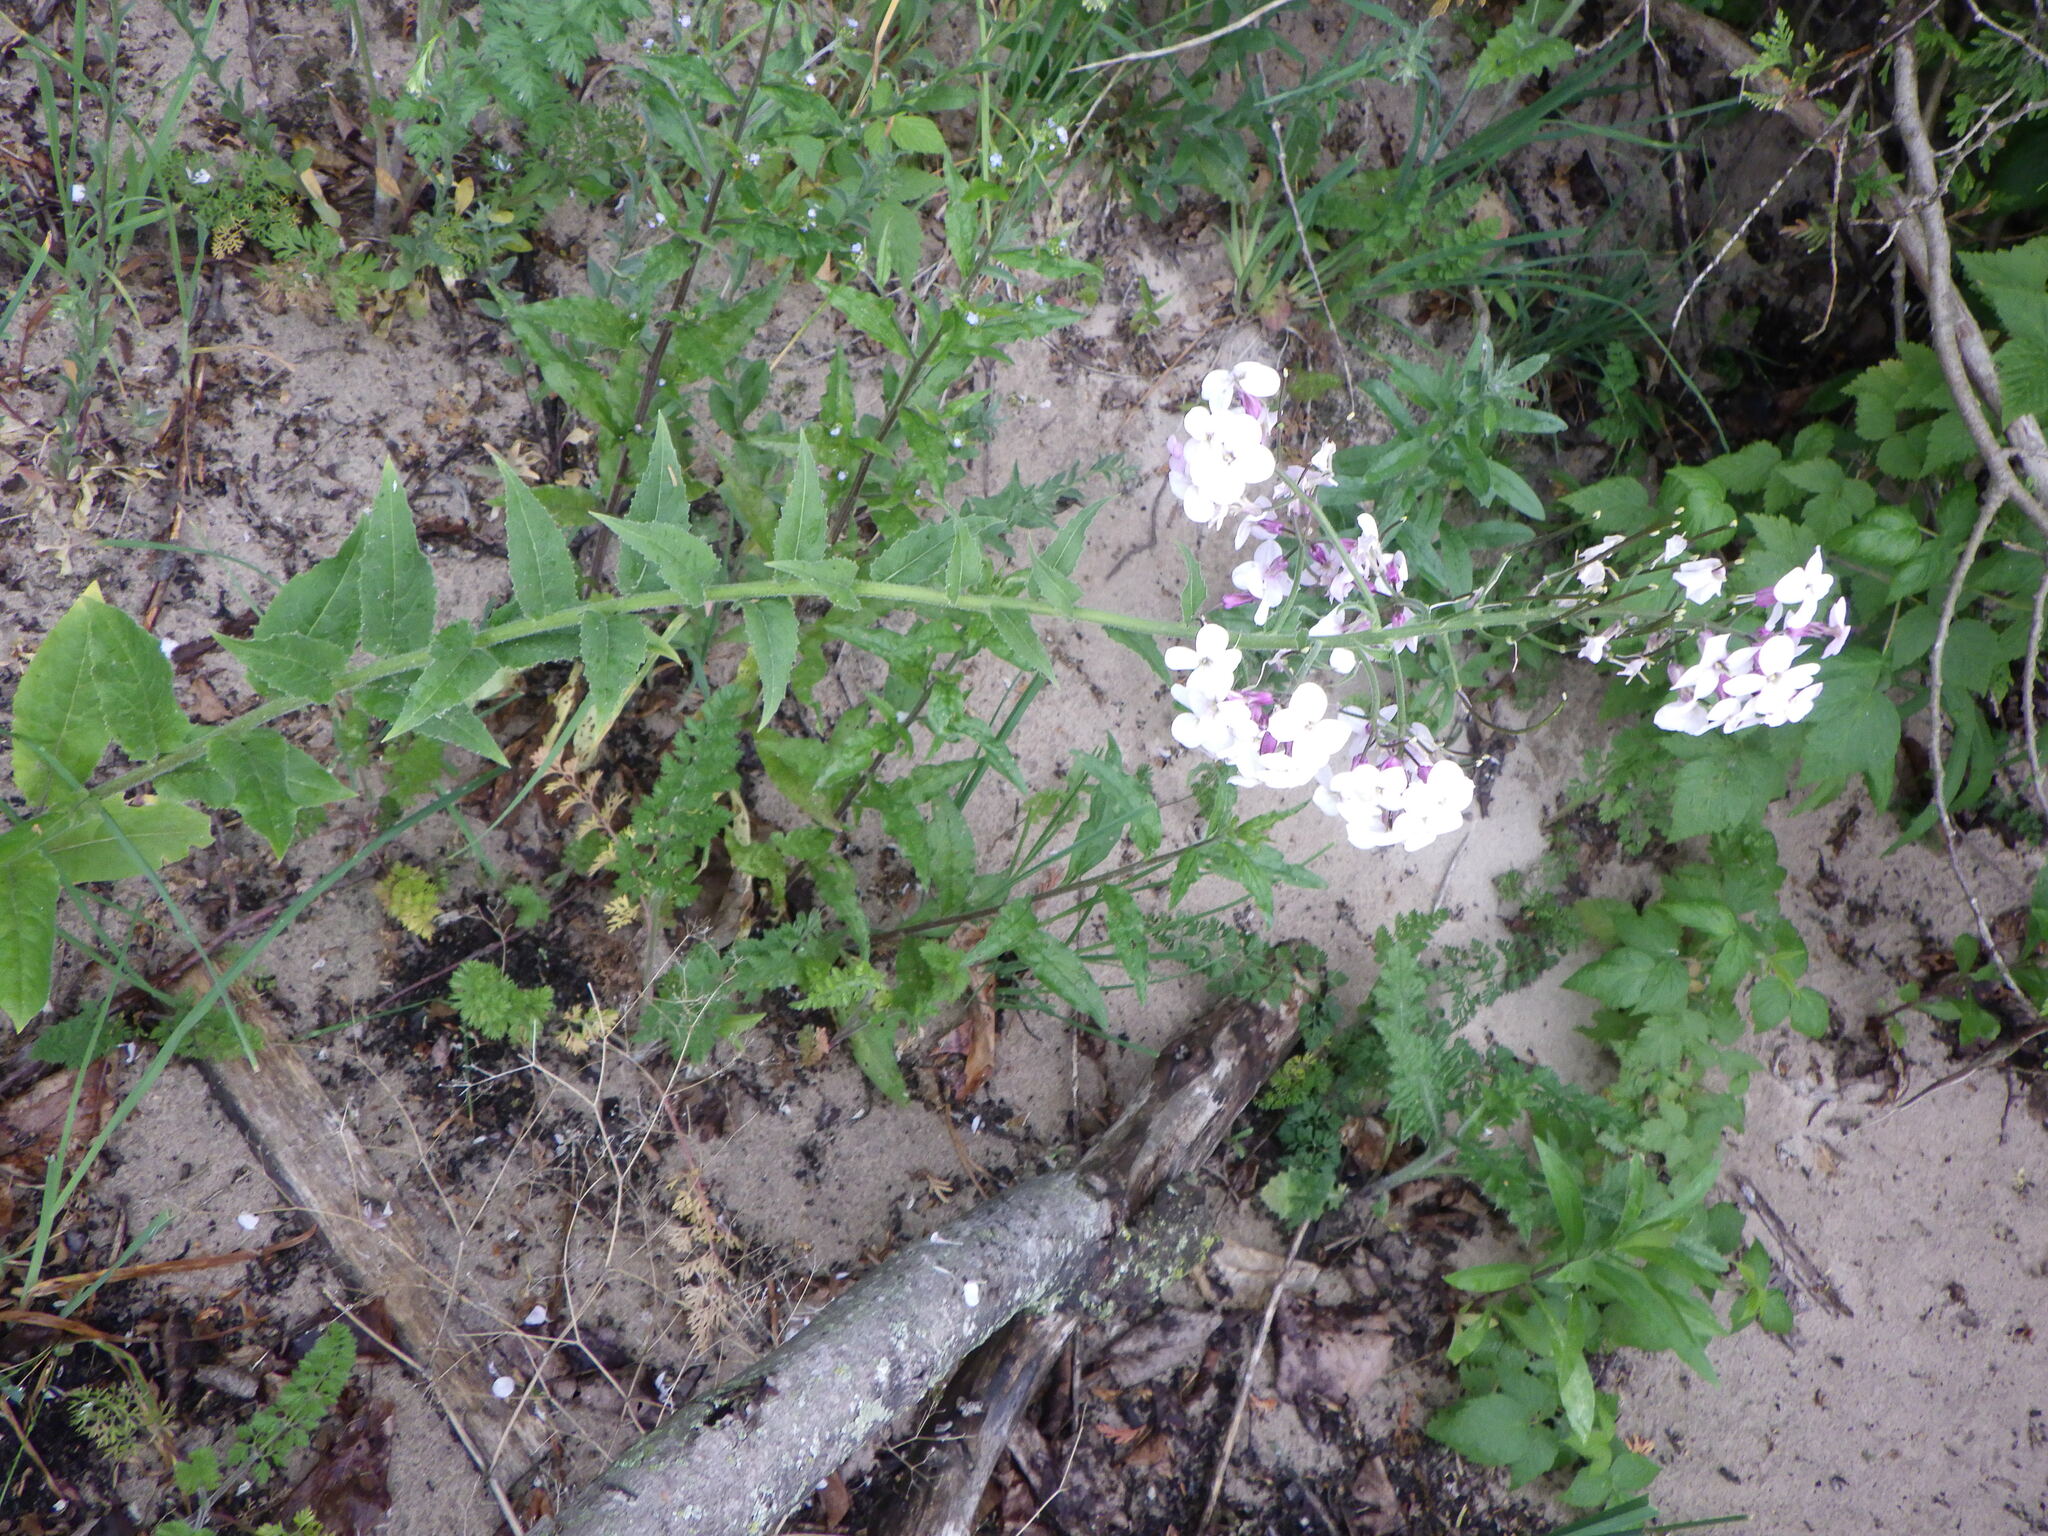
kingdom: Plantae
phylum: Tracheophyta
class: Magnoliopsida
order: Brassicales
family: Brassicaceae
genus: Hesperis
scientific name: Hesperis matronalis
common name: Dame's-violet
